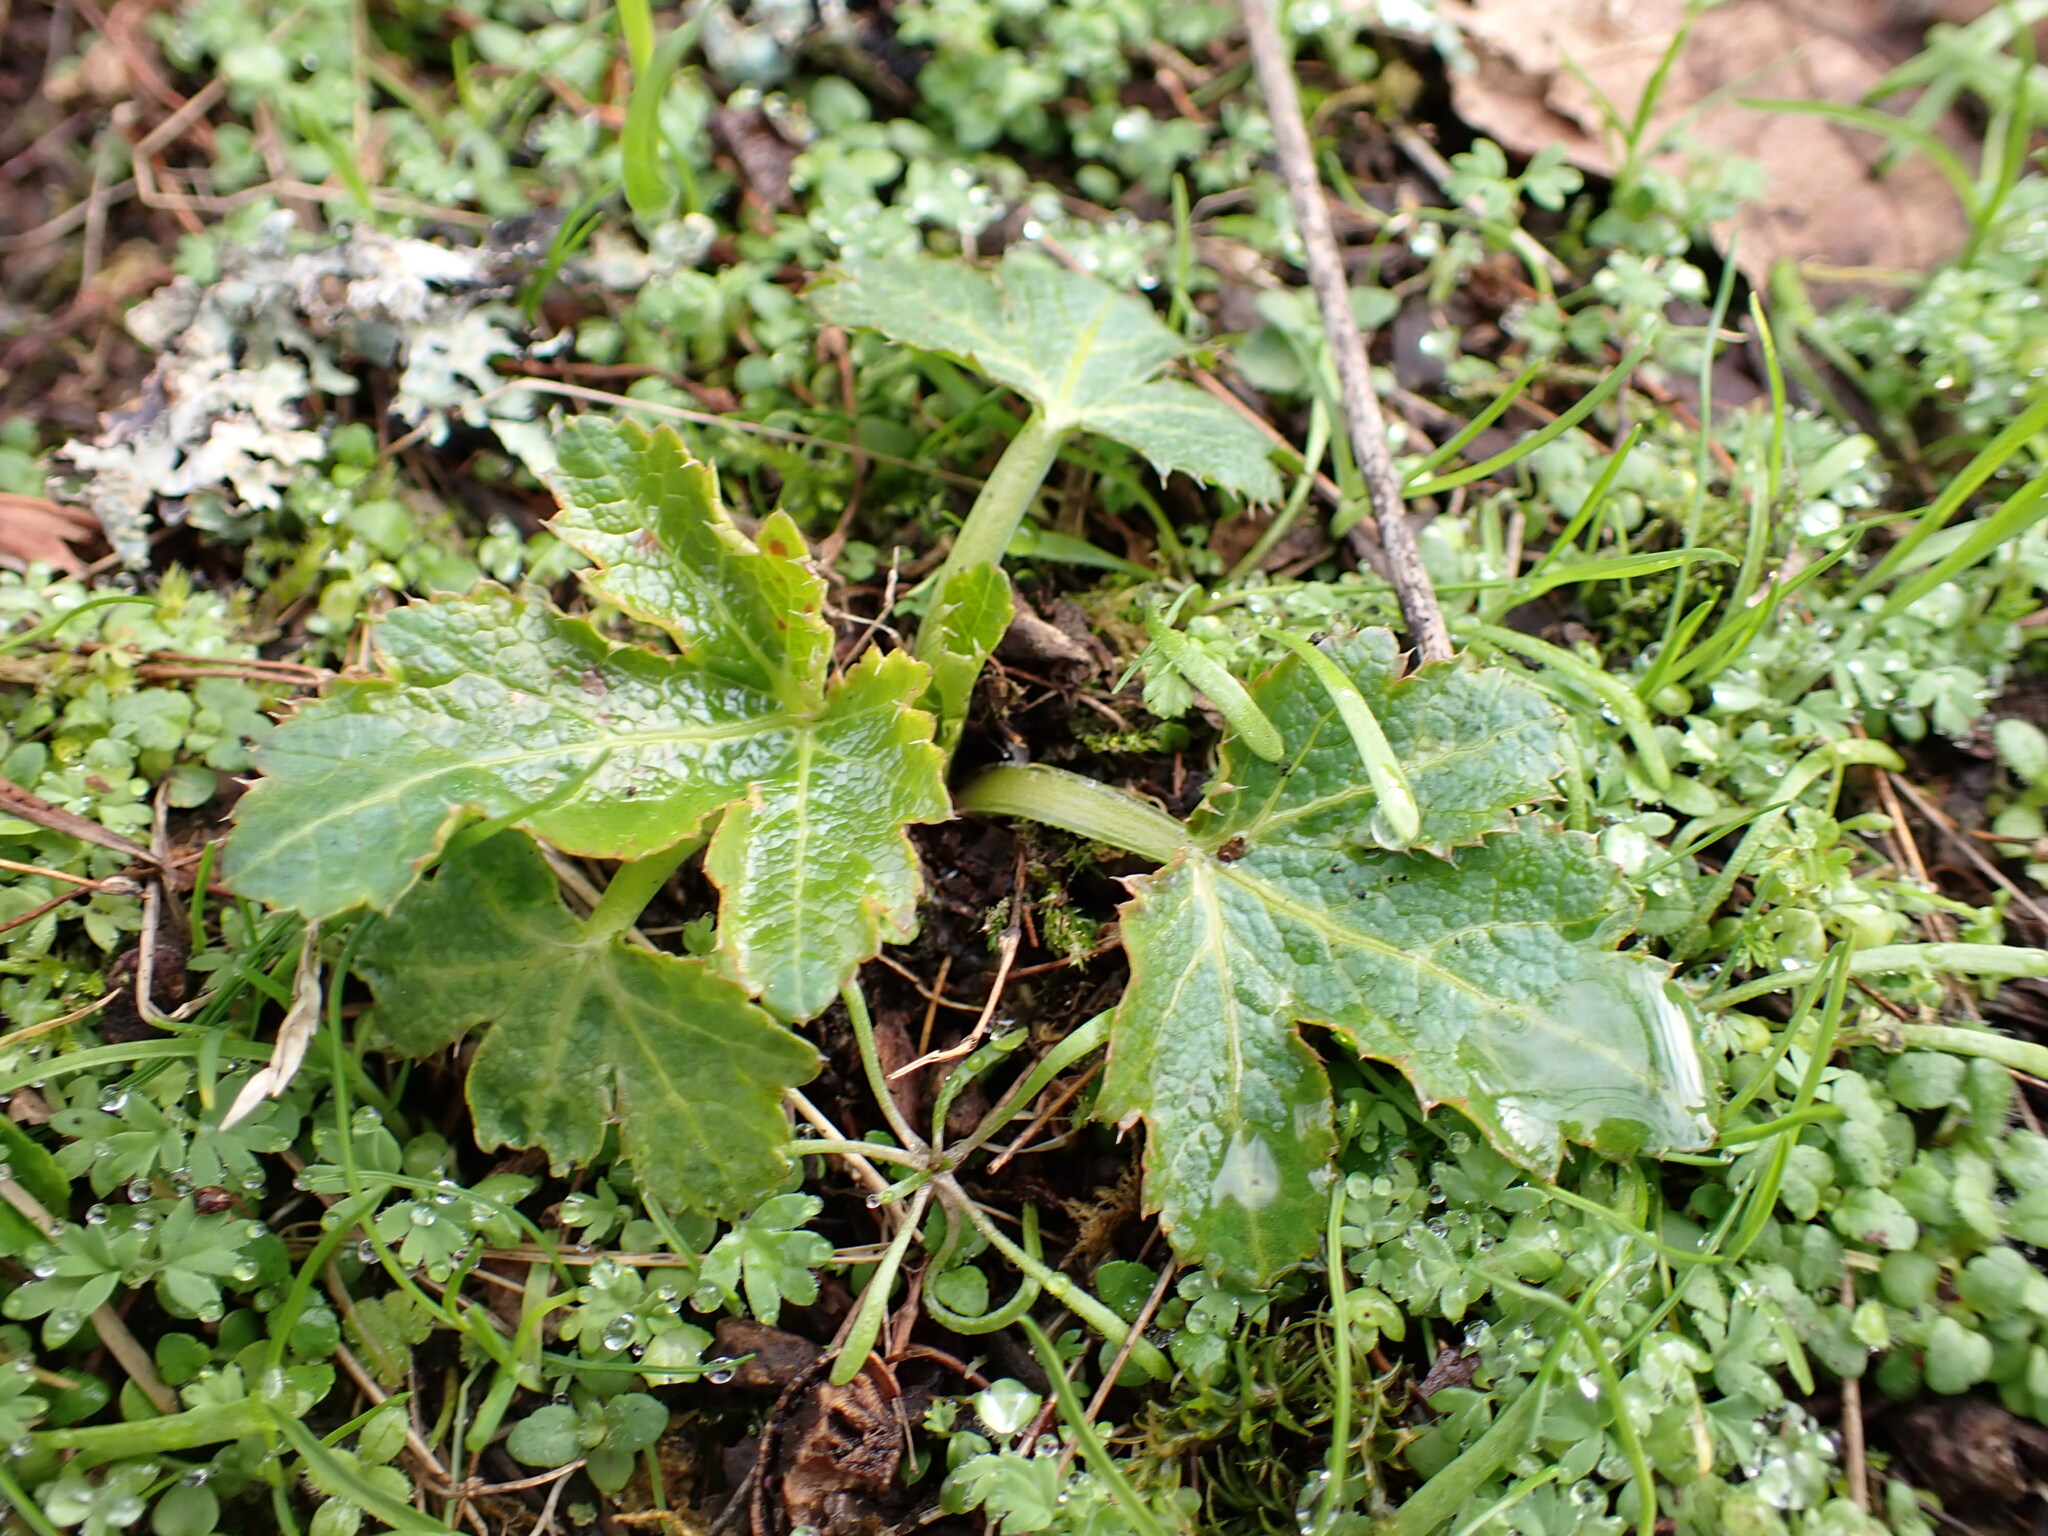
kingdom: Plantae
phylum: Tracheophyta
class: Magnoliopsida
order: Apiales
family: Apiaceae
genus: Sanicula
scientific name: Sanicula crassicaulis
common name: Western snakeroot
